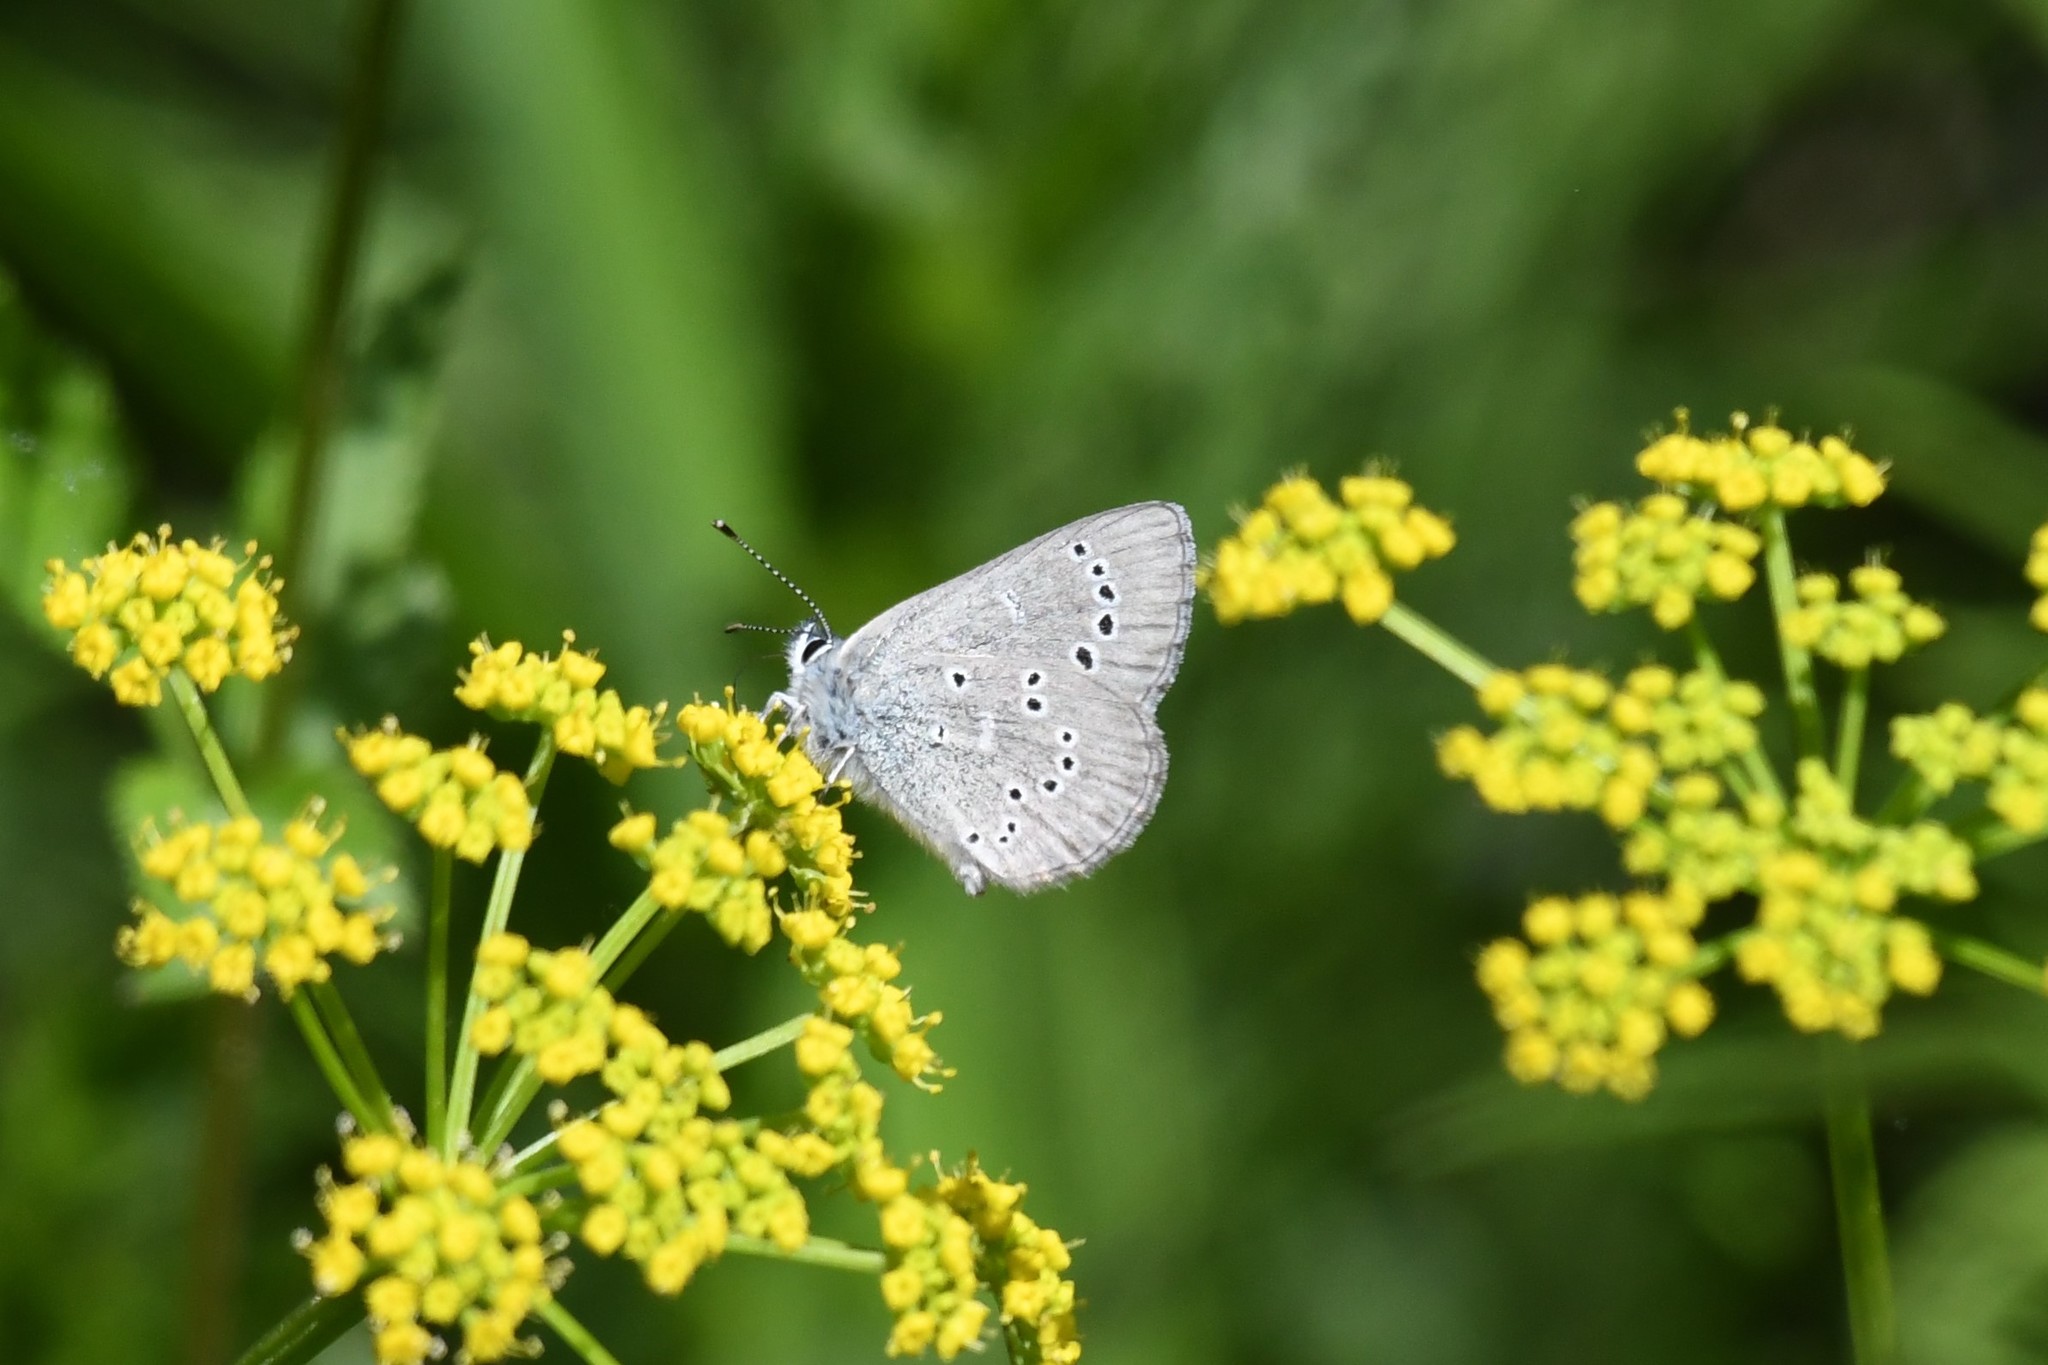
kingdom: Animalia
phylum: Arthropoda
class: Insecta
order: Lepidoptera
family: Lycaenidae
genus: Glaucopsyche
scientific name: Glaucopsyche lygdamus
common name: Silvery blue
